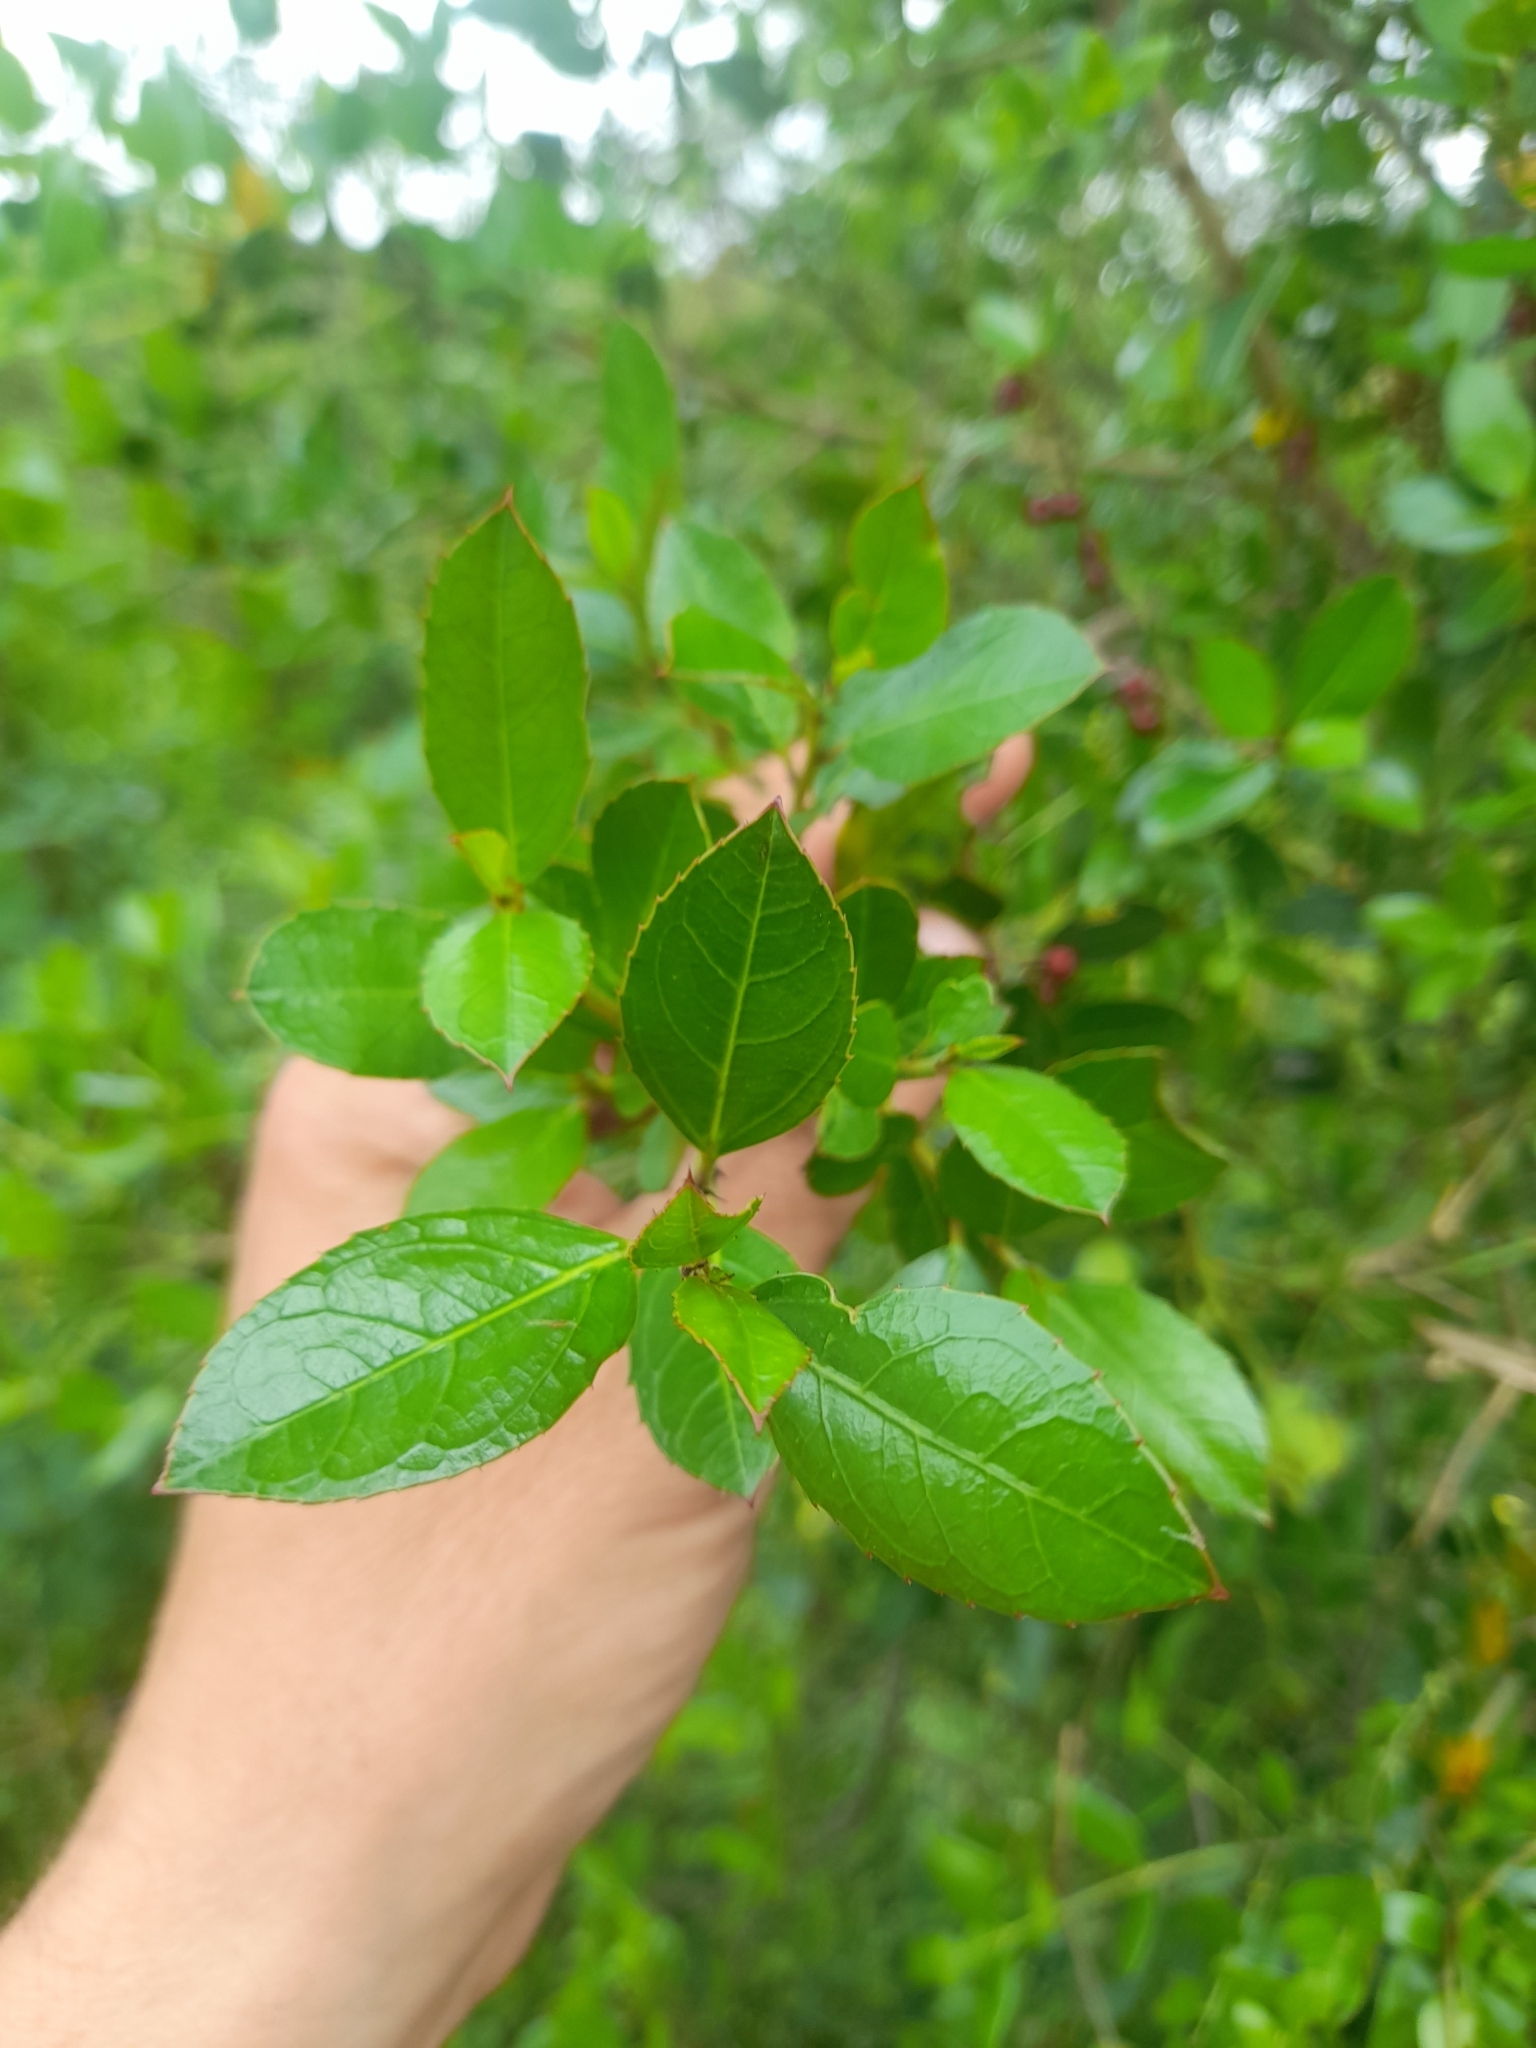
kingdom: Plantae
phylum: Tracheophyta
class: Magnoliopsida
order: Rosales
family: Rhamnaceae
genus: Rhamnus
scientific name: Rhamnus alaternus
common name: Mediterranean buckthorn
